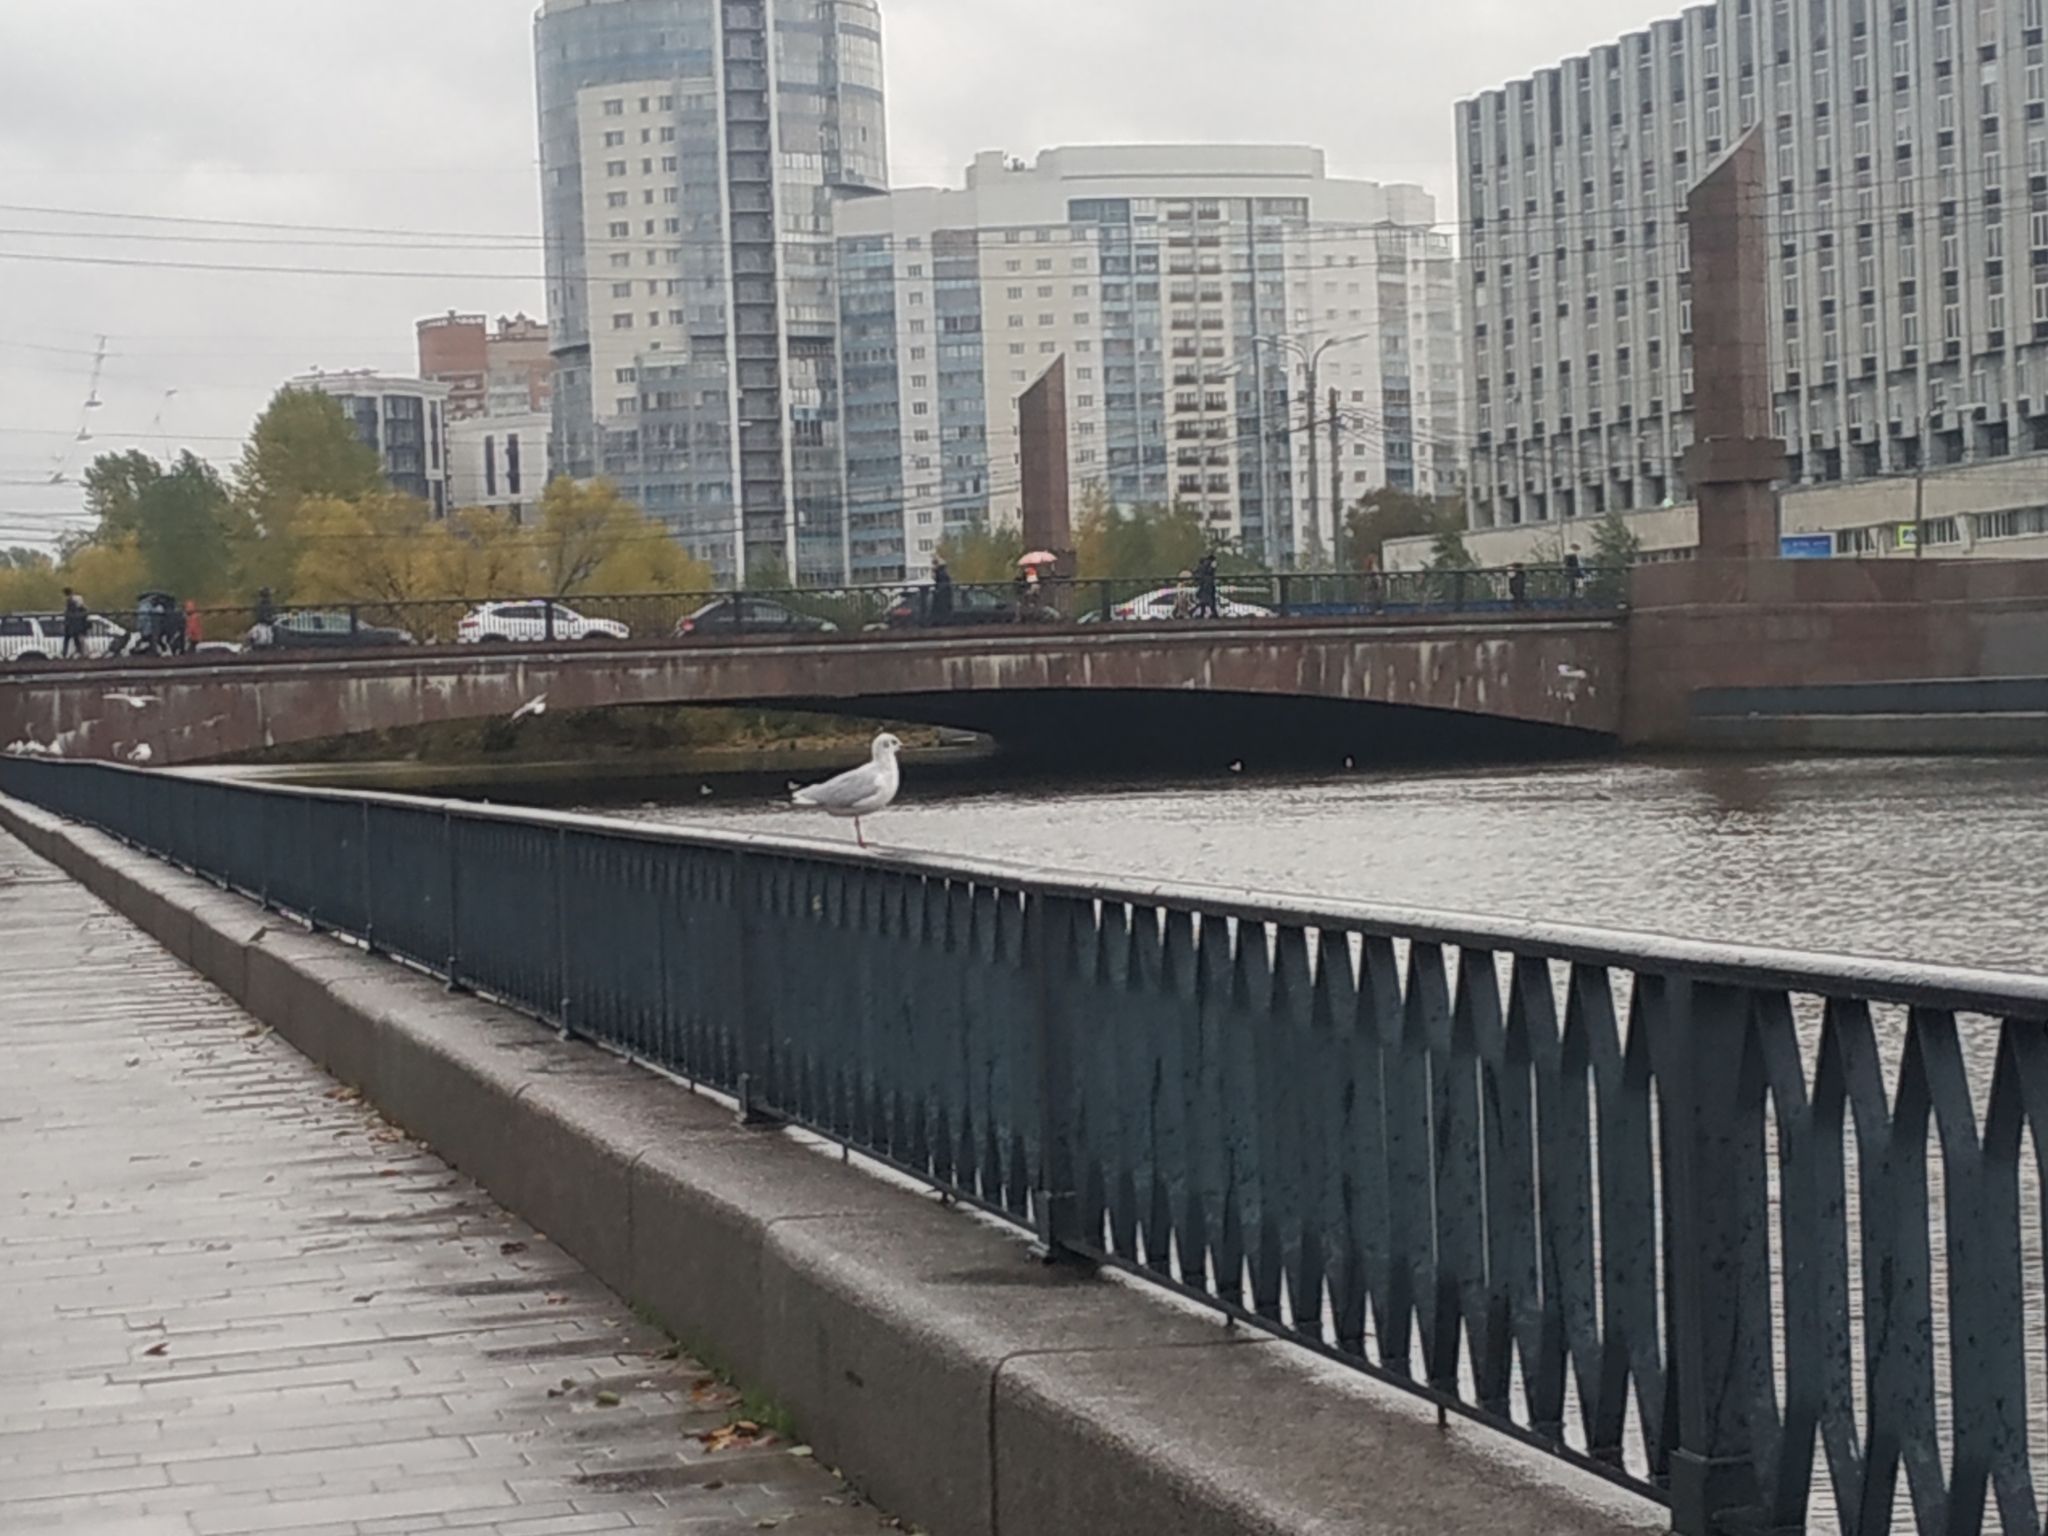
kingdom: Animalia
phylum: Chordata
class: Aves
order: Charadriiformes
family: Laridae
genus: Chroicocephalus
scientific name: Chroicocephalus ridibundus
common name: Black-headed gull
